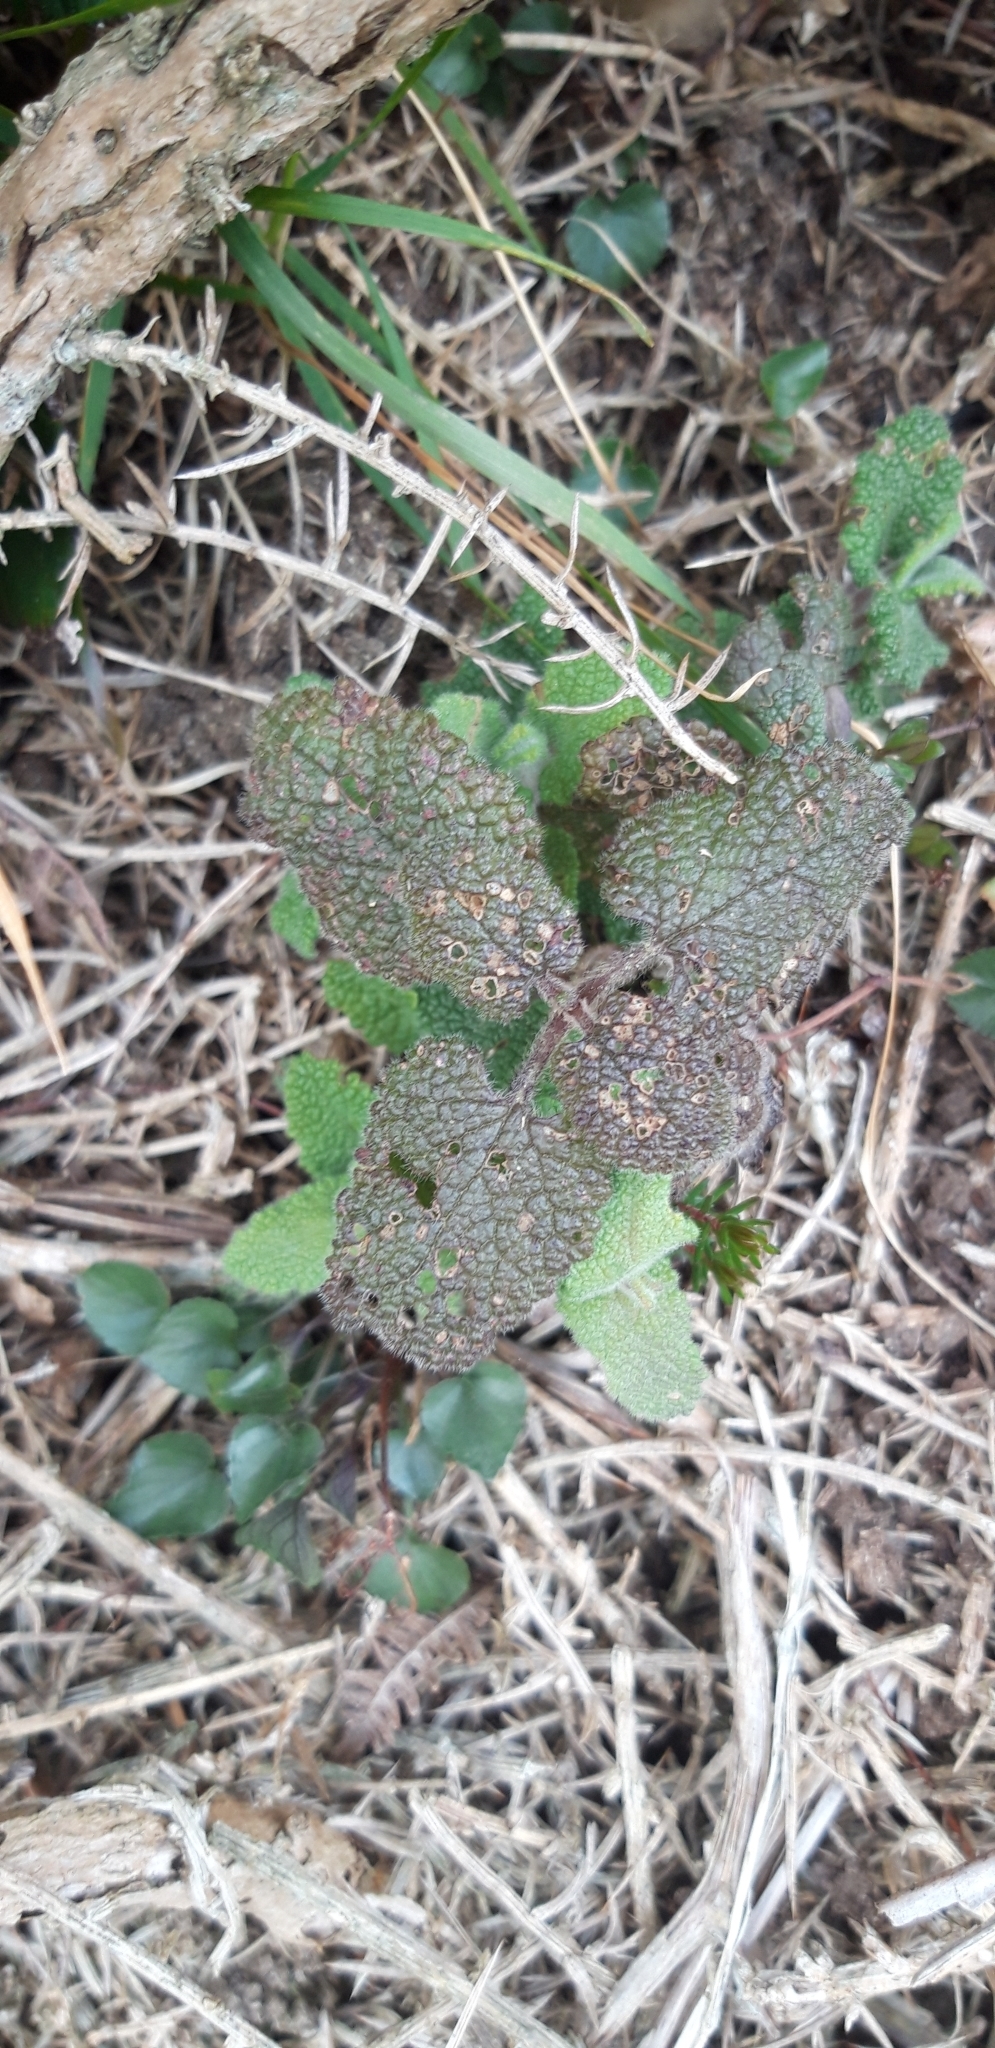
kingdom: Plantae
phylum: Tracheophyta
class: Magnoliopsida
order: Lamiales
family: Lamiaceae
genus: Teucrium
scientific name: Teucrium scorodonia
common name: Woodland germander
